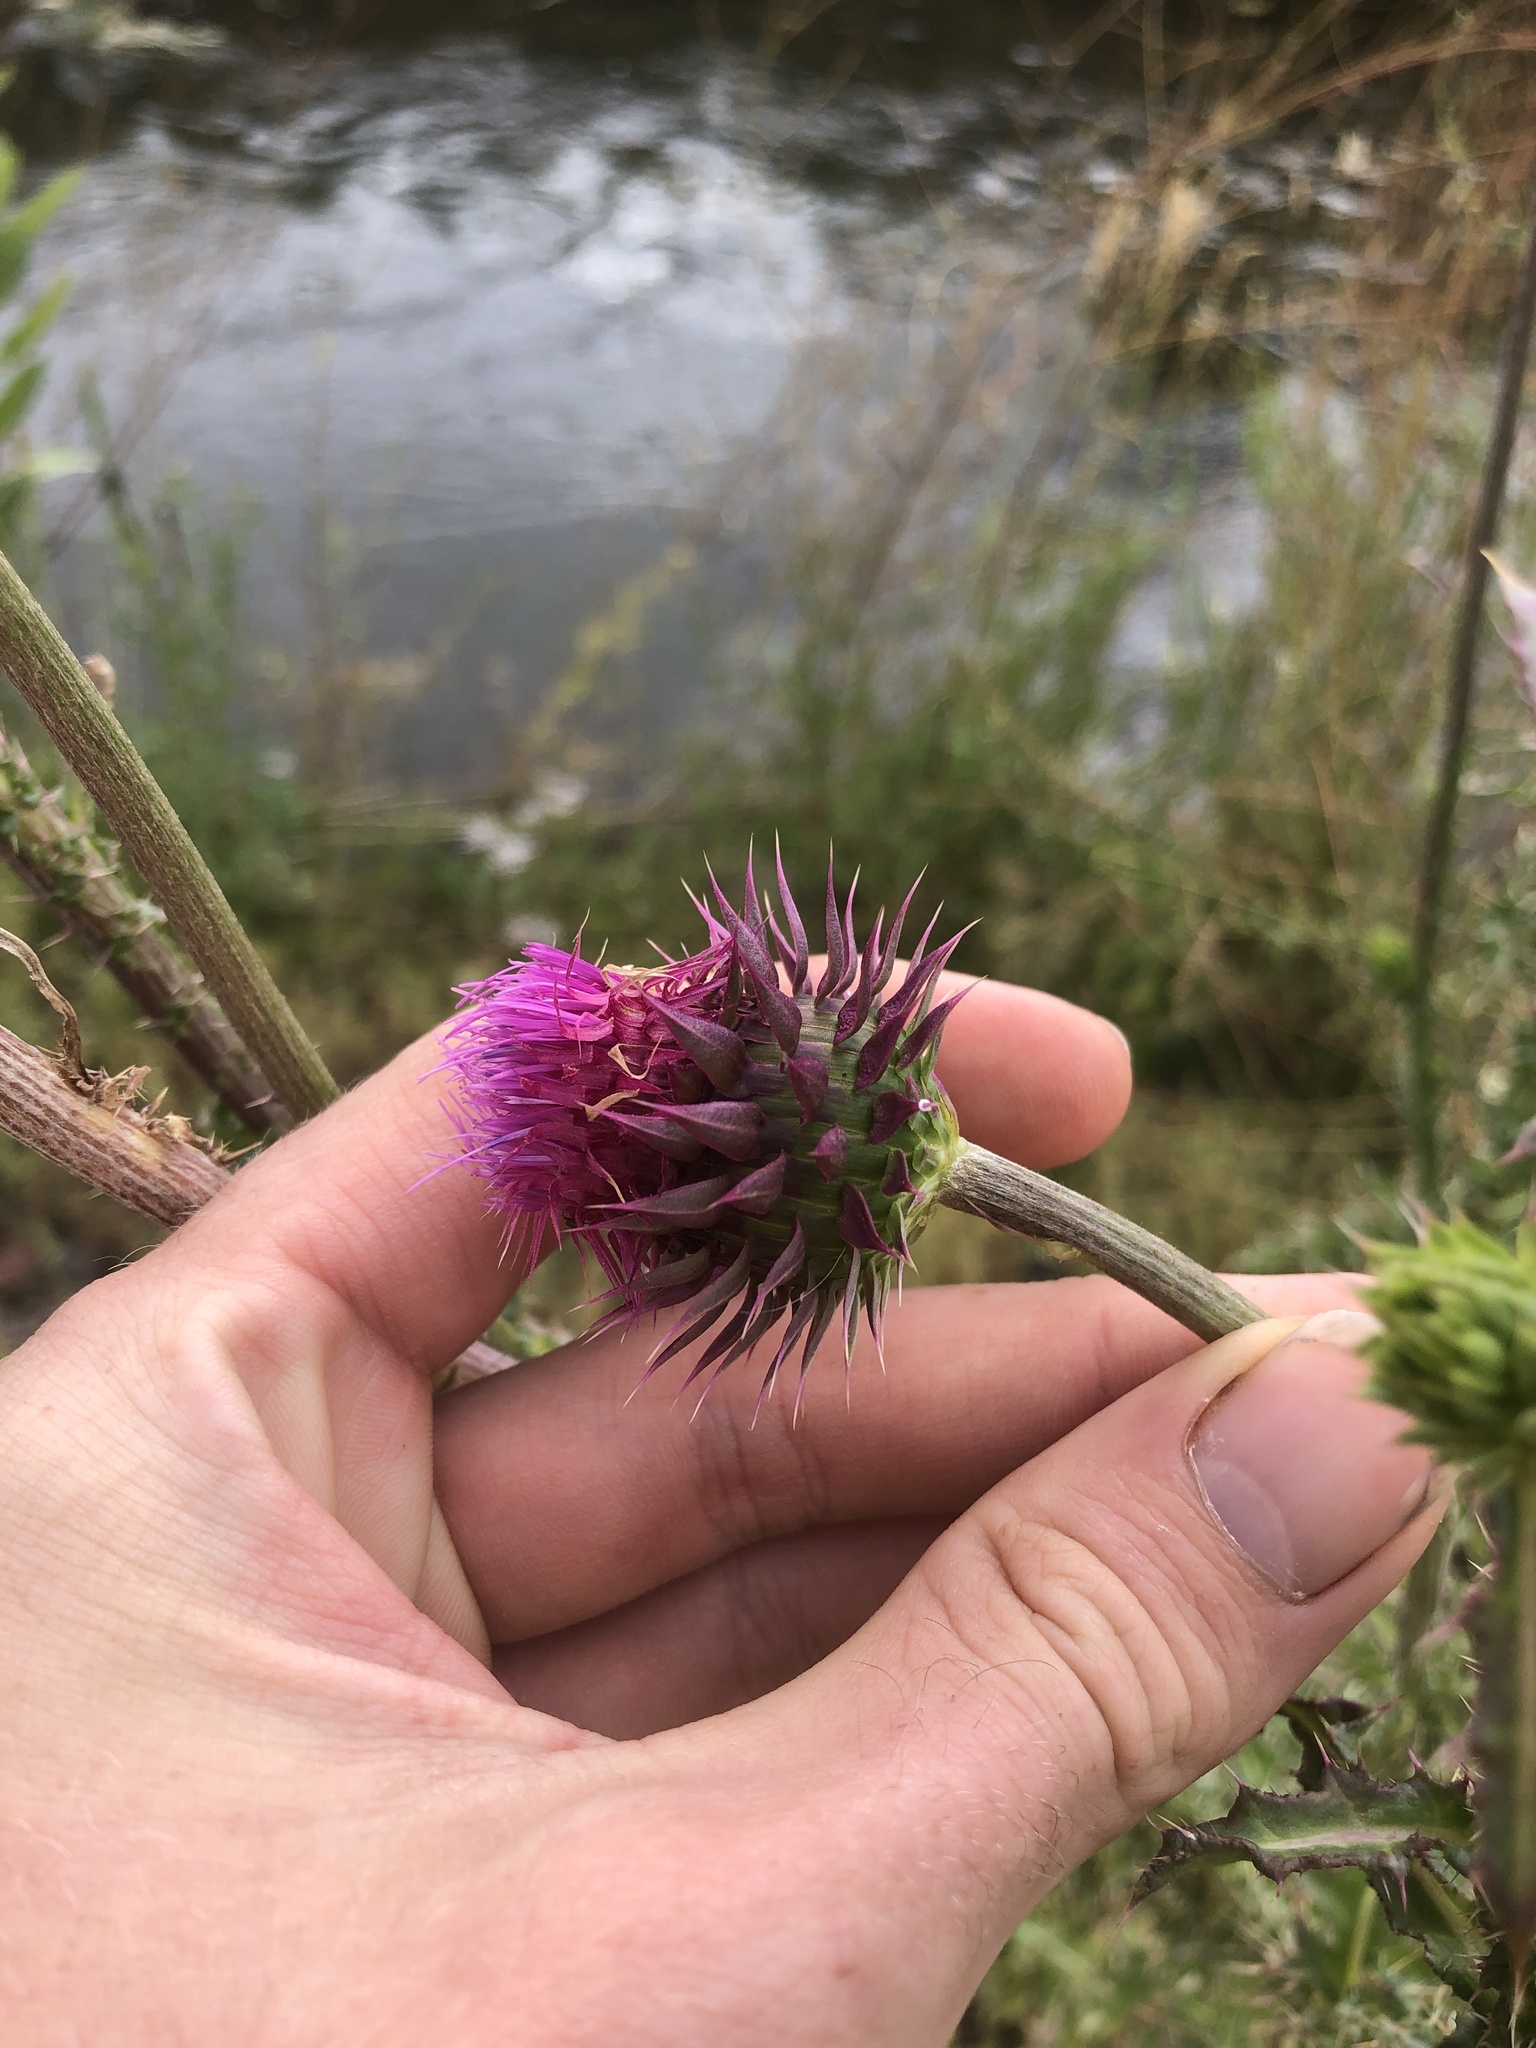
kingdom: Plantae
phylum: Tracheophyta
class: Magnoliopsida
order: Asterales
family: Asteraceae
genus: Carduus
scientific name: Carduus nutans
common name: Musk thistle
